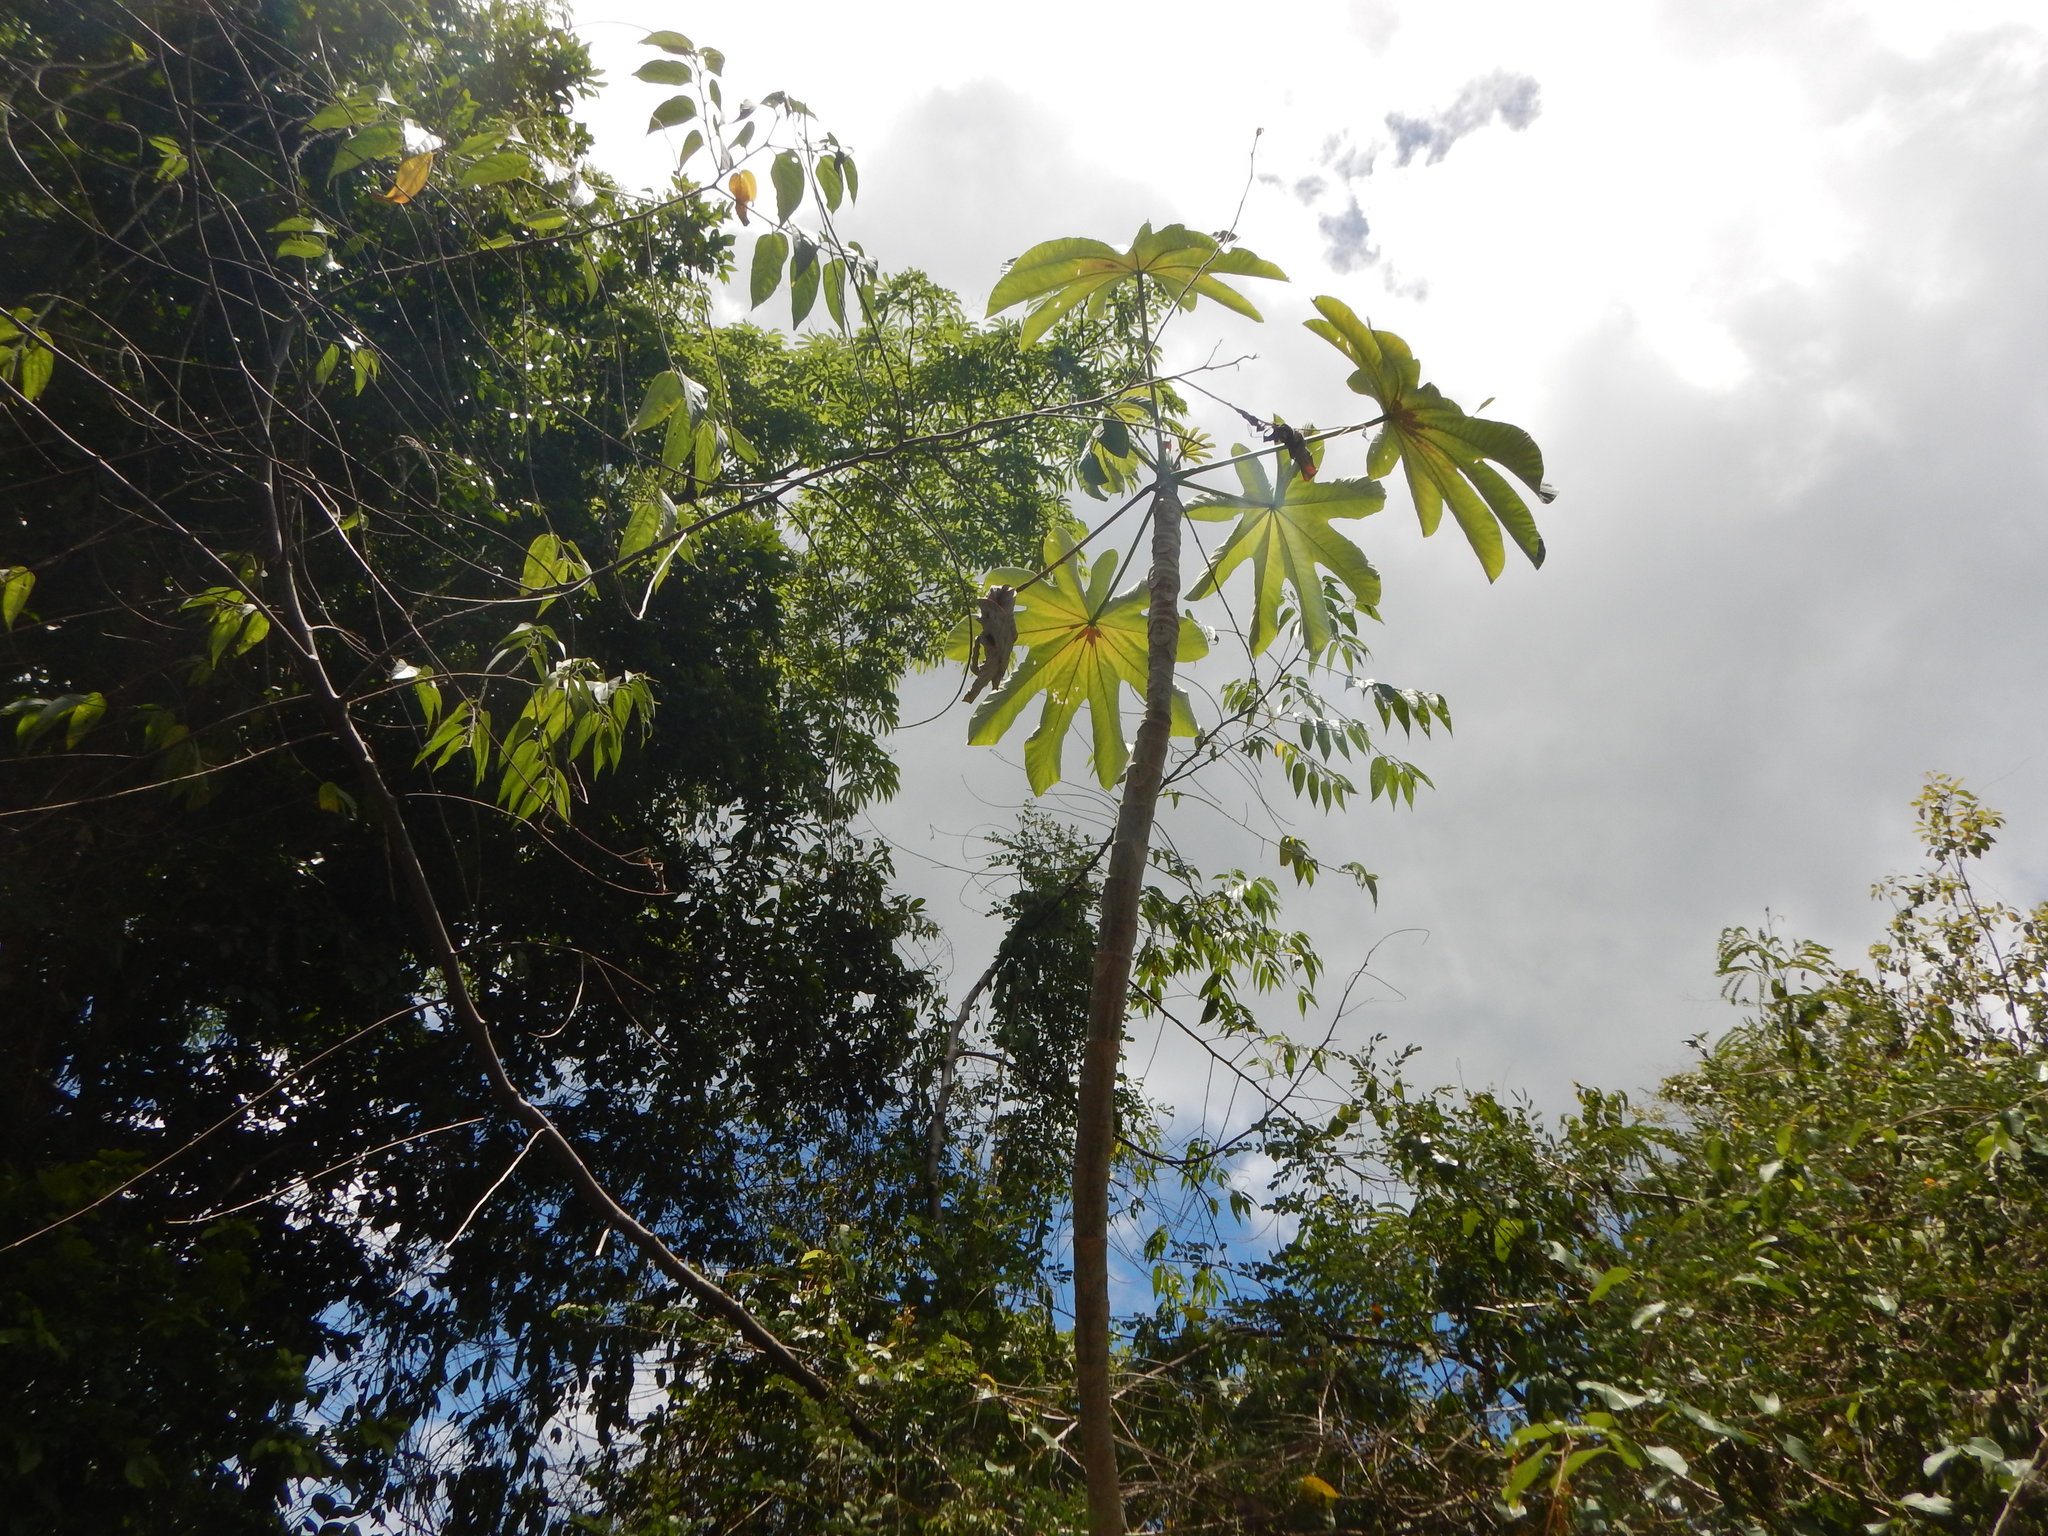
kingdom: Plantae
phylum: Tracheophyta
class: Magnoliopsida
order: Rosales
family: Urticaceae
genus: Cecropia
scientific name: Cecropia schreberiana
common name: Trumpet tree
